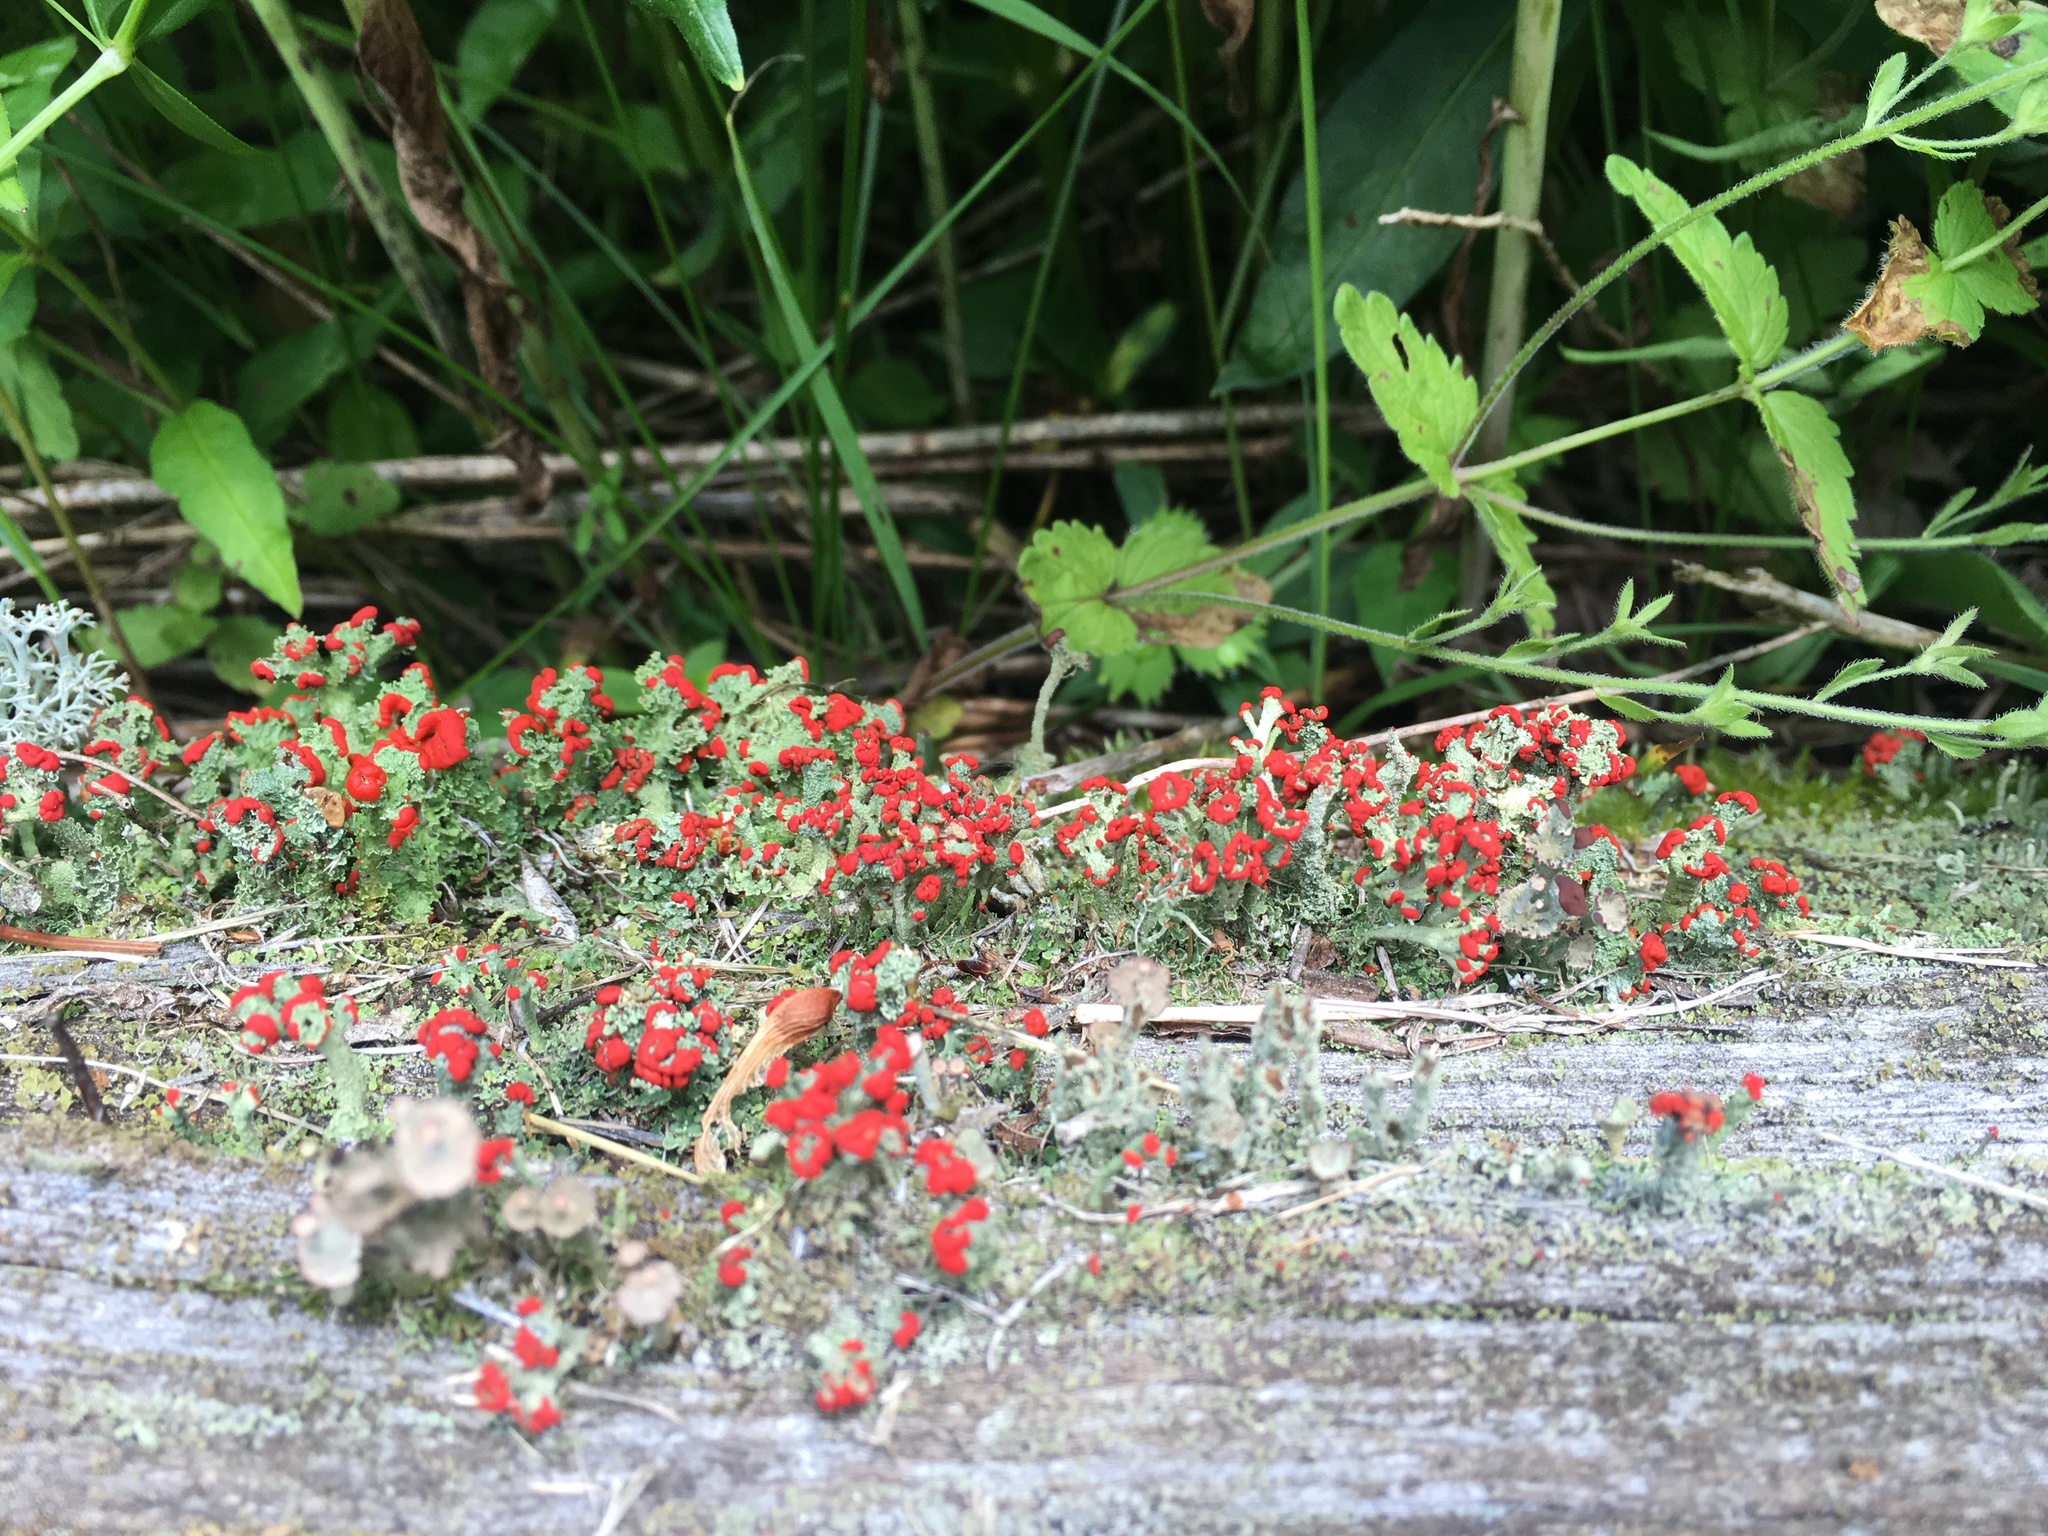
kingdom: Fungi
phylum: Ascomycota
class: Lecanoromycetes
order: Lecanorales
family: Cladoniaceae
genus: Cladonia
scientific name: Cladonia cristatella
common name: British soldier lichen
